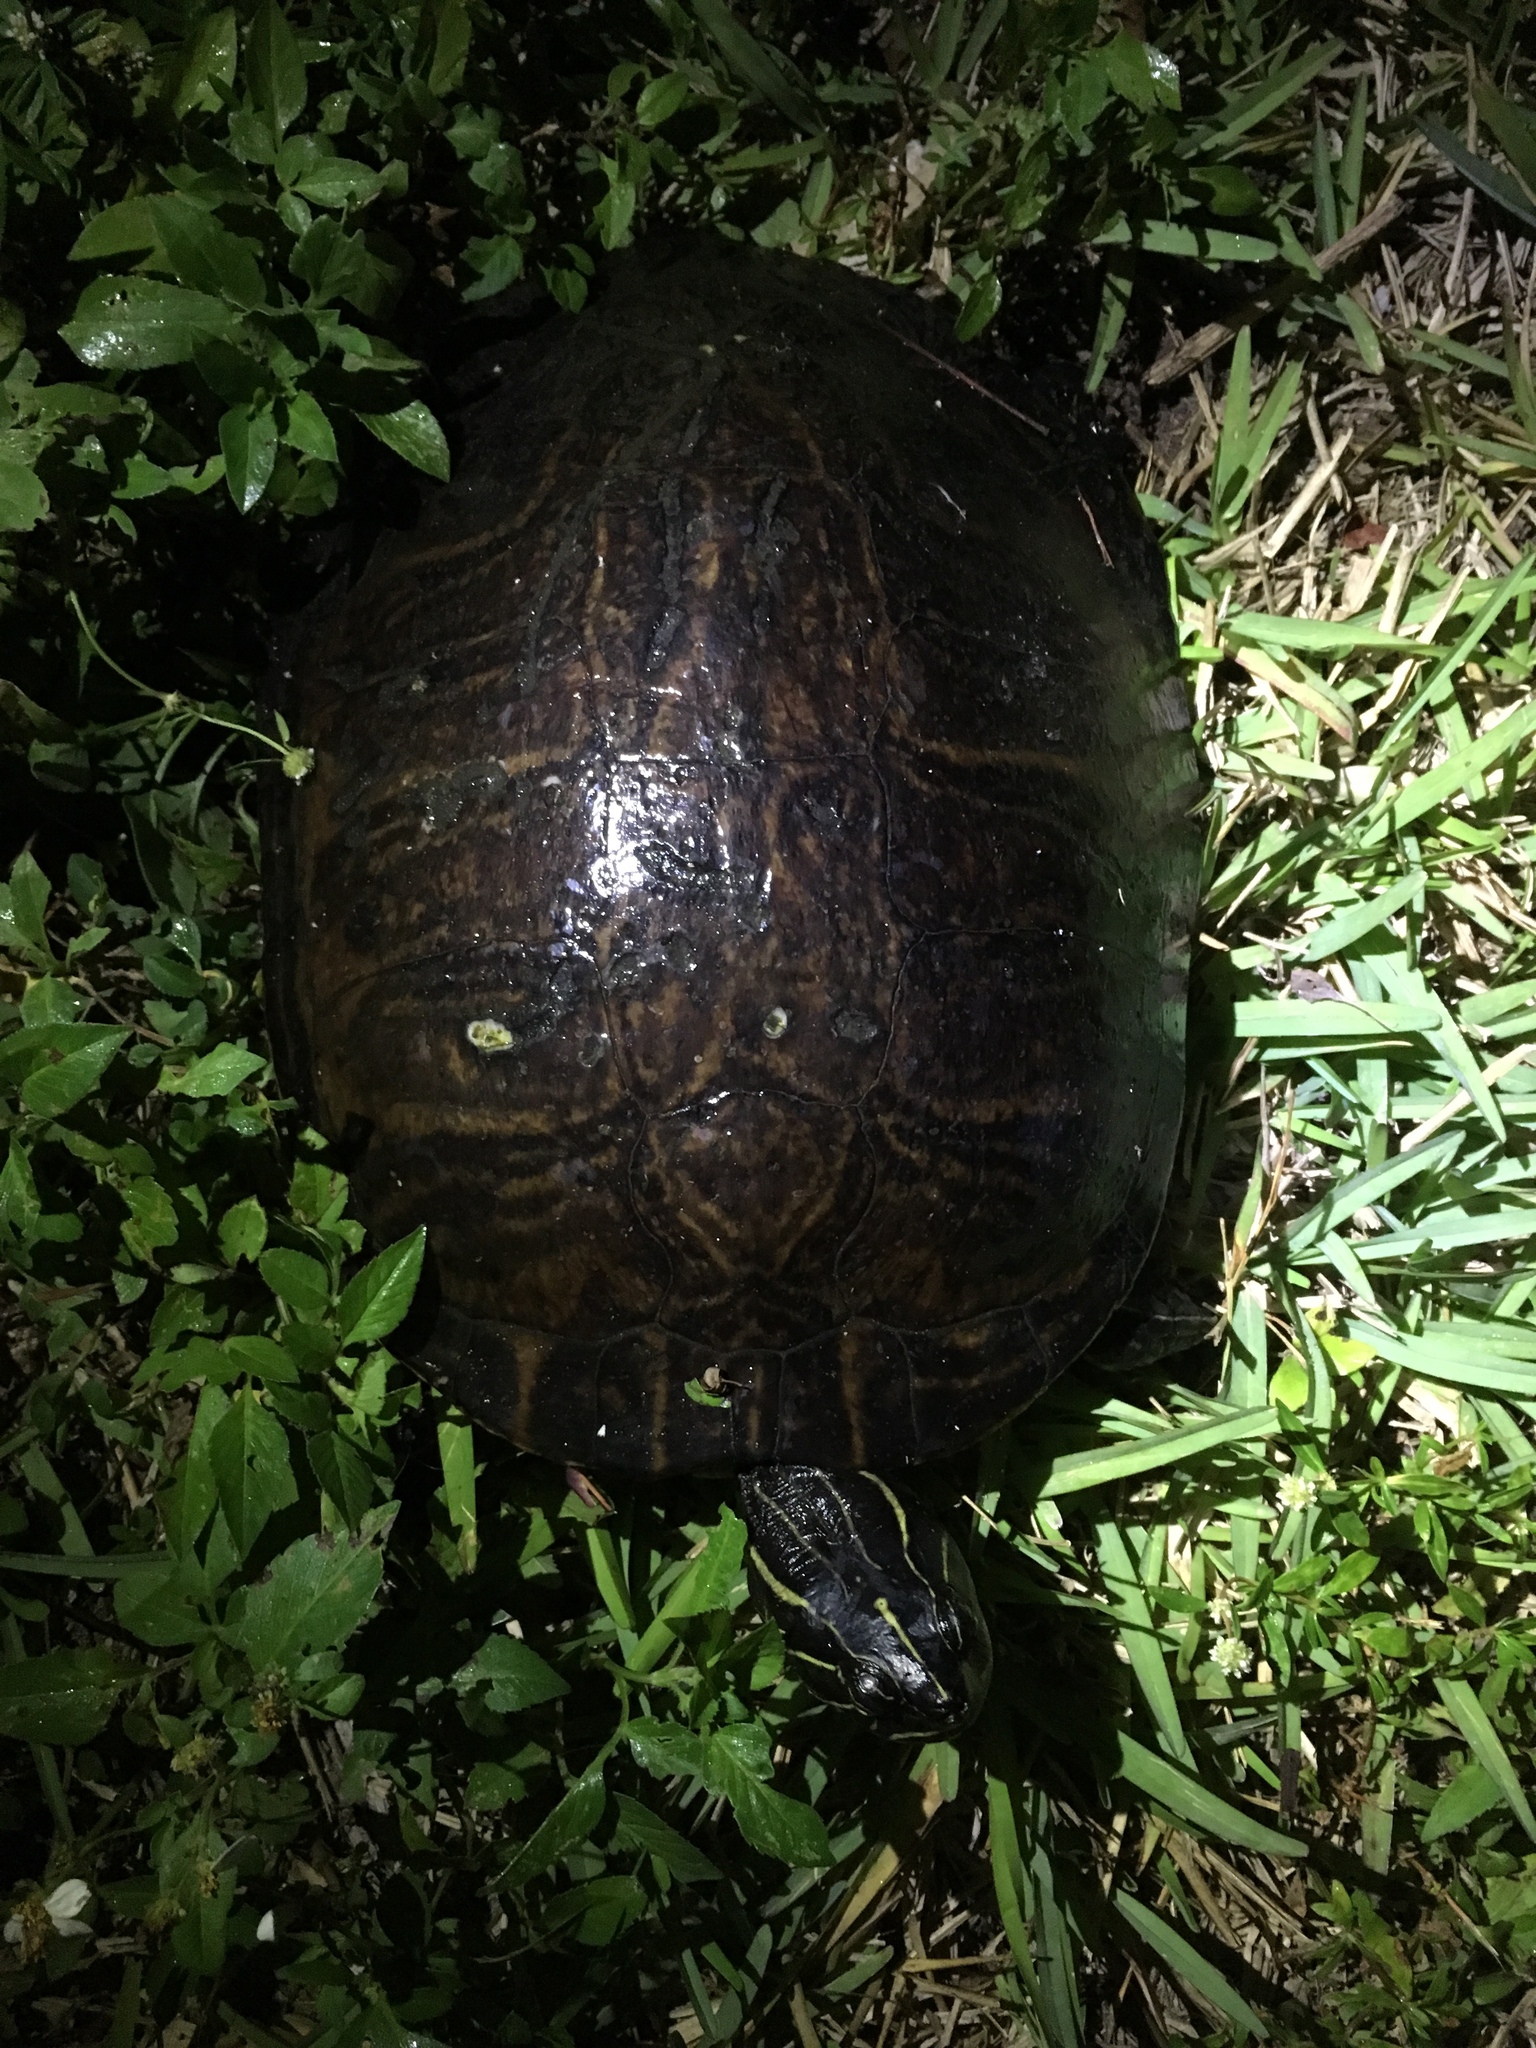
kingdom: Animalia
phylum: Chordata
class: Testudines
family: Emydidae
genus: Pseudemys
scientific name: Pseudemys peninsularis
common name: Peninsula cooter
